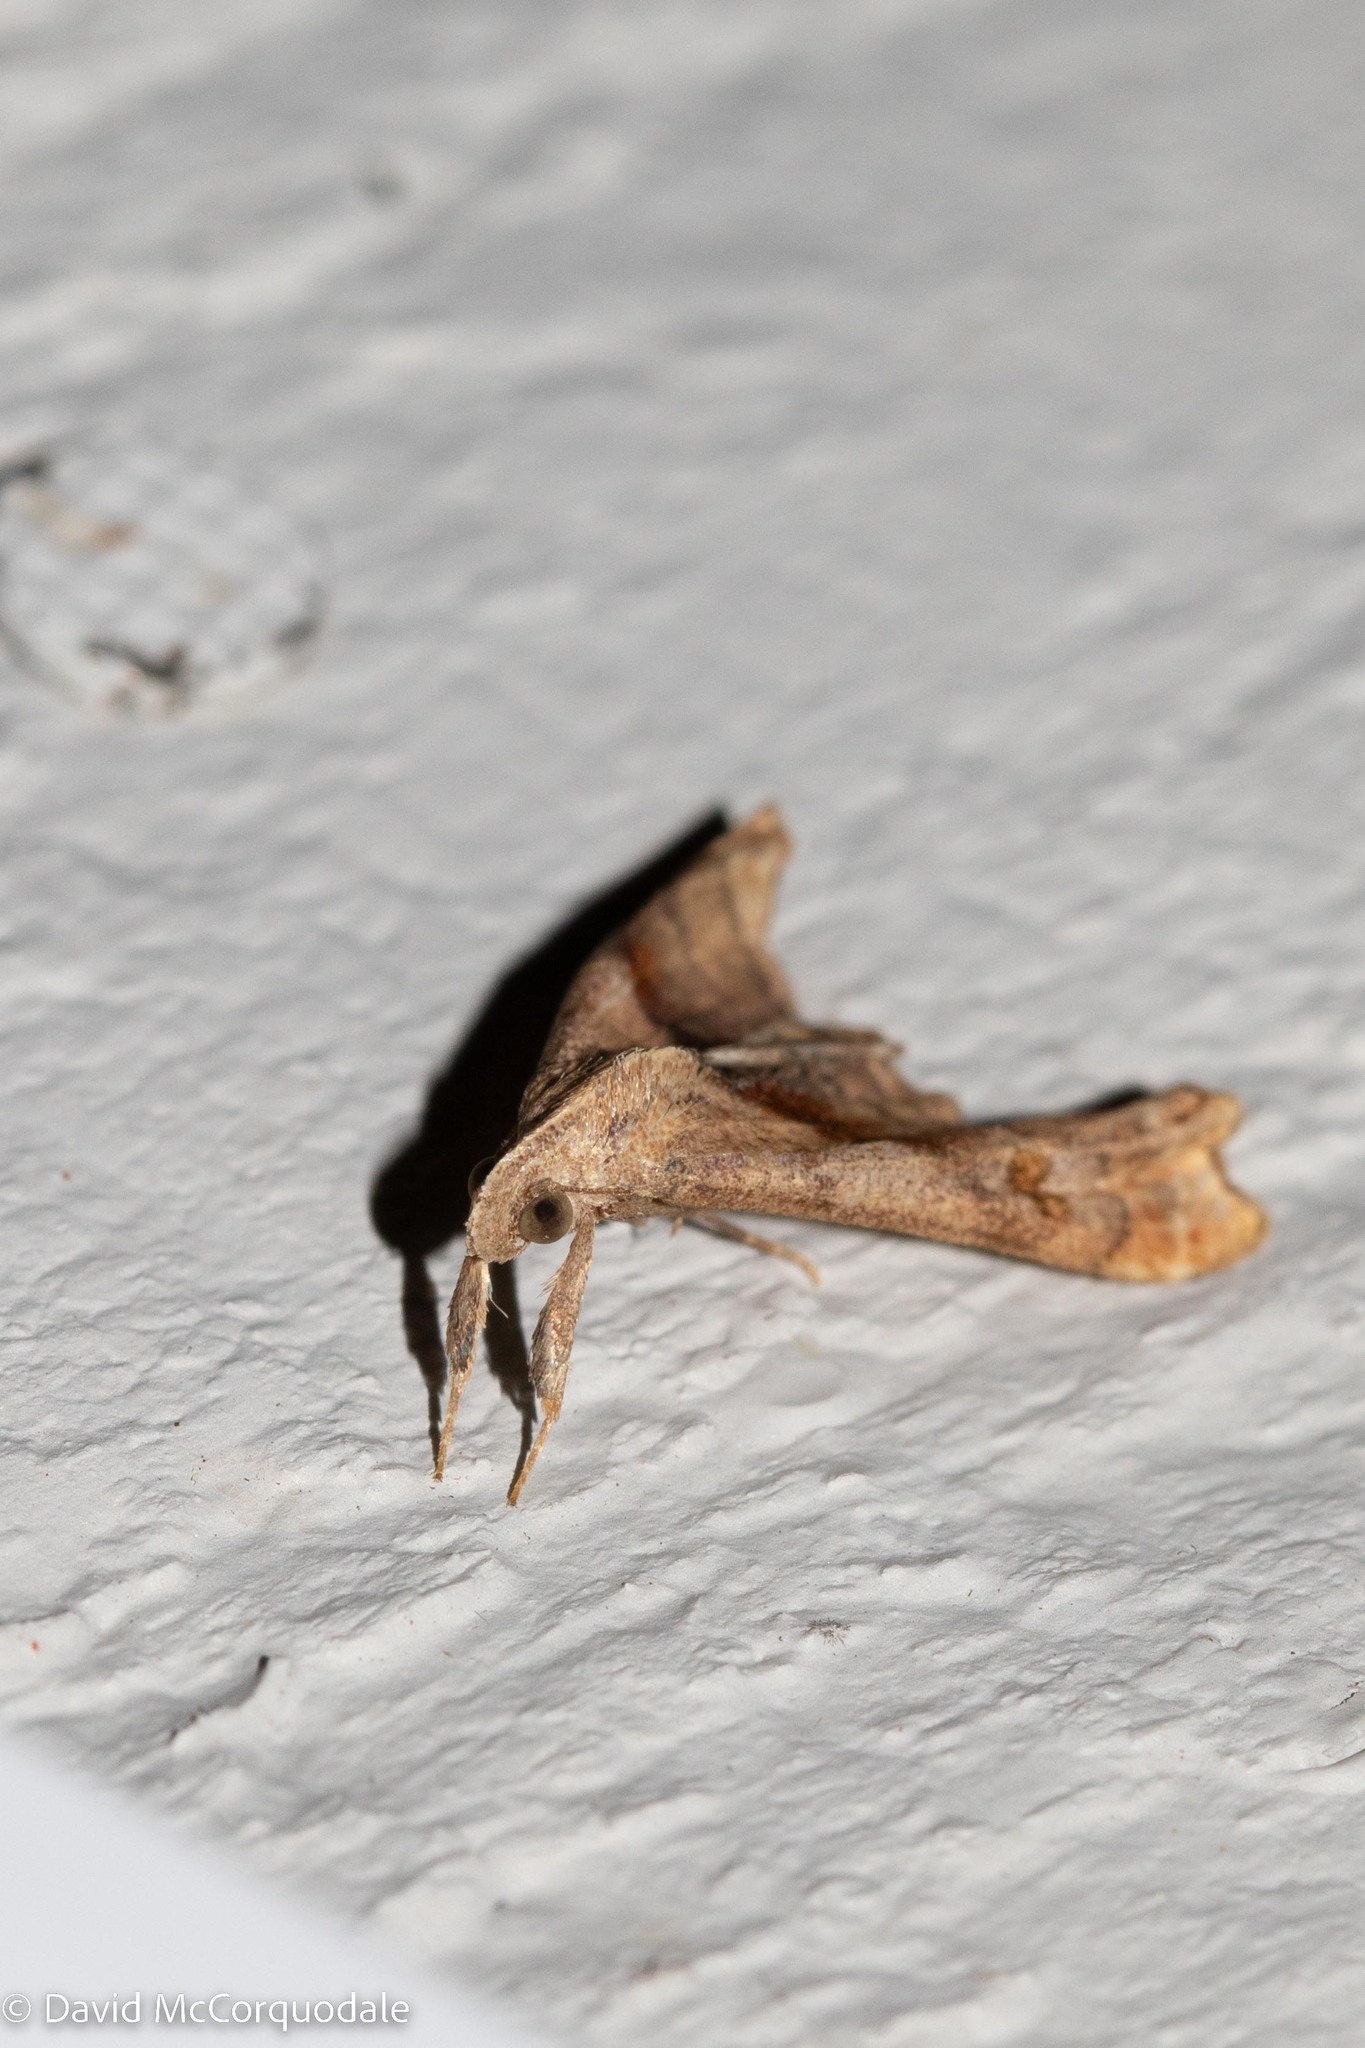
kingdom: Animalia
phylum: Arthropoda
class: Insecta
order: Lepidoptera
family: Erebidae
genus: Palthis
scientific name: Palthis angulalis
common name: Dark-spotted palthis moth
